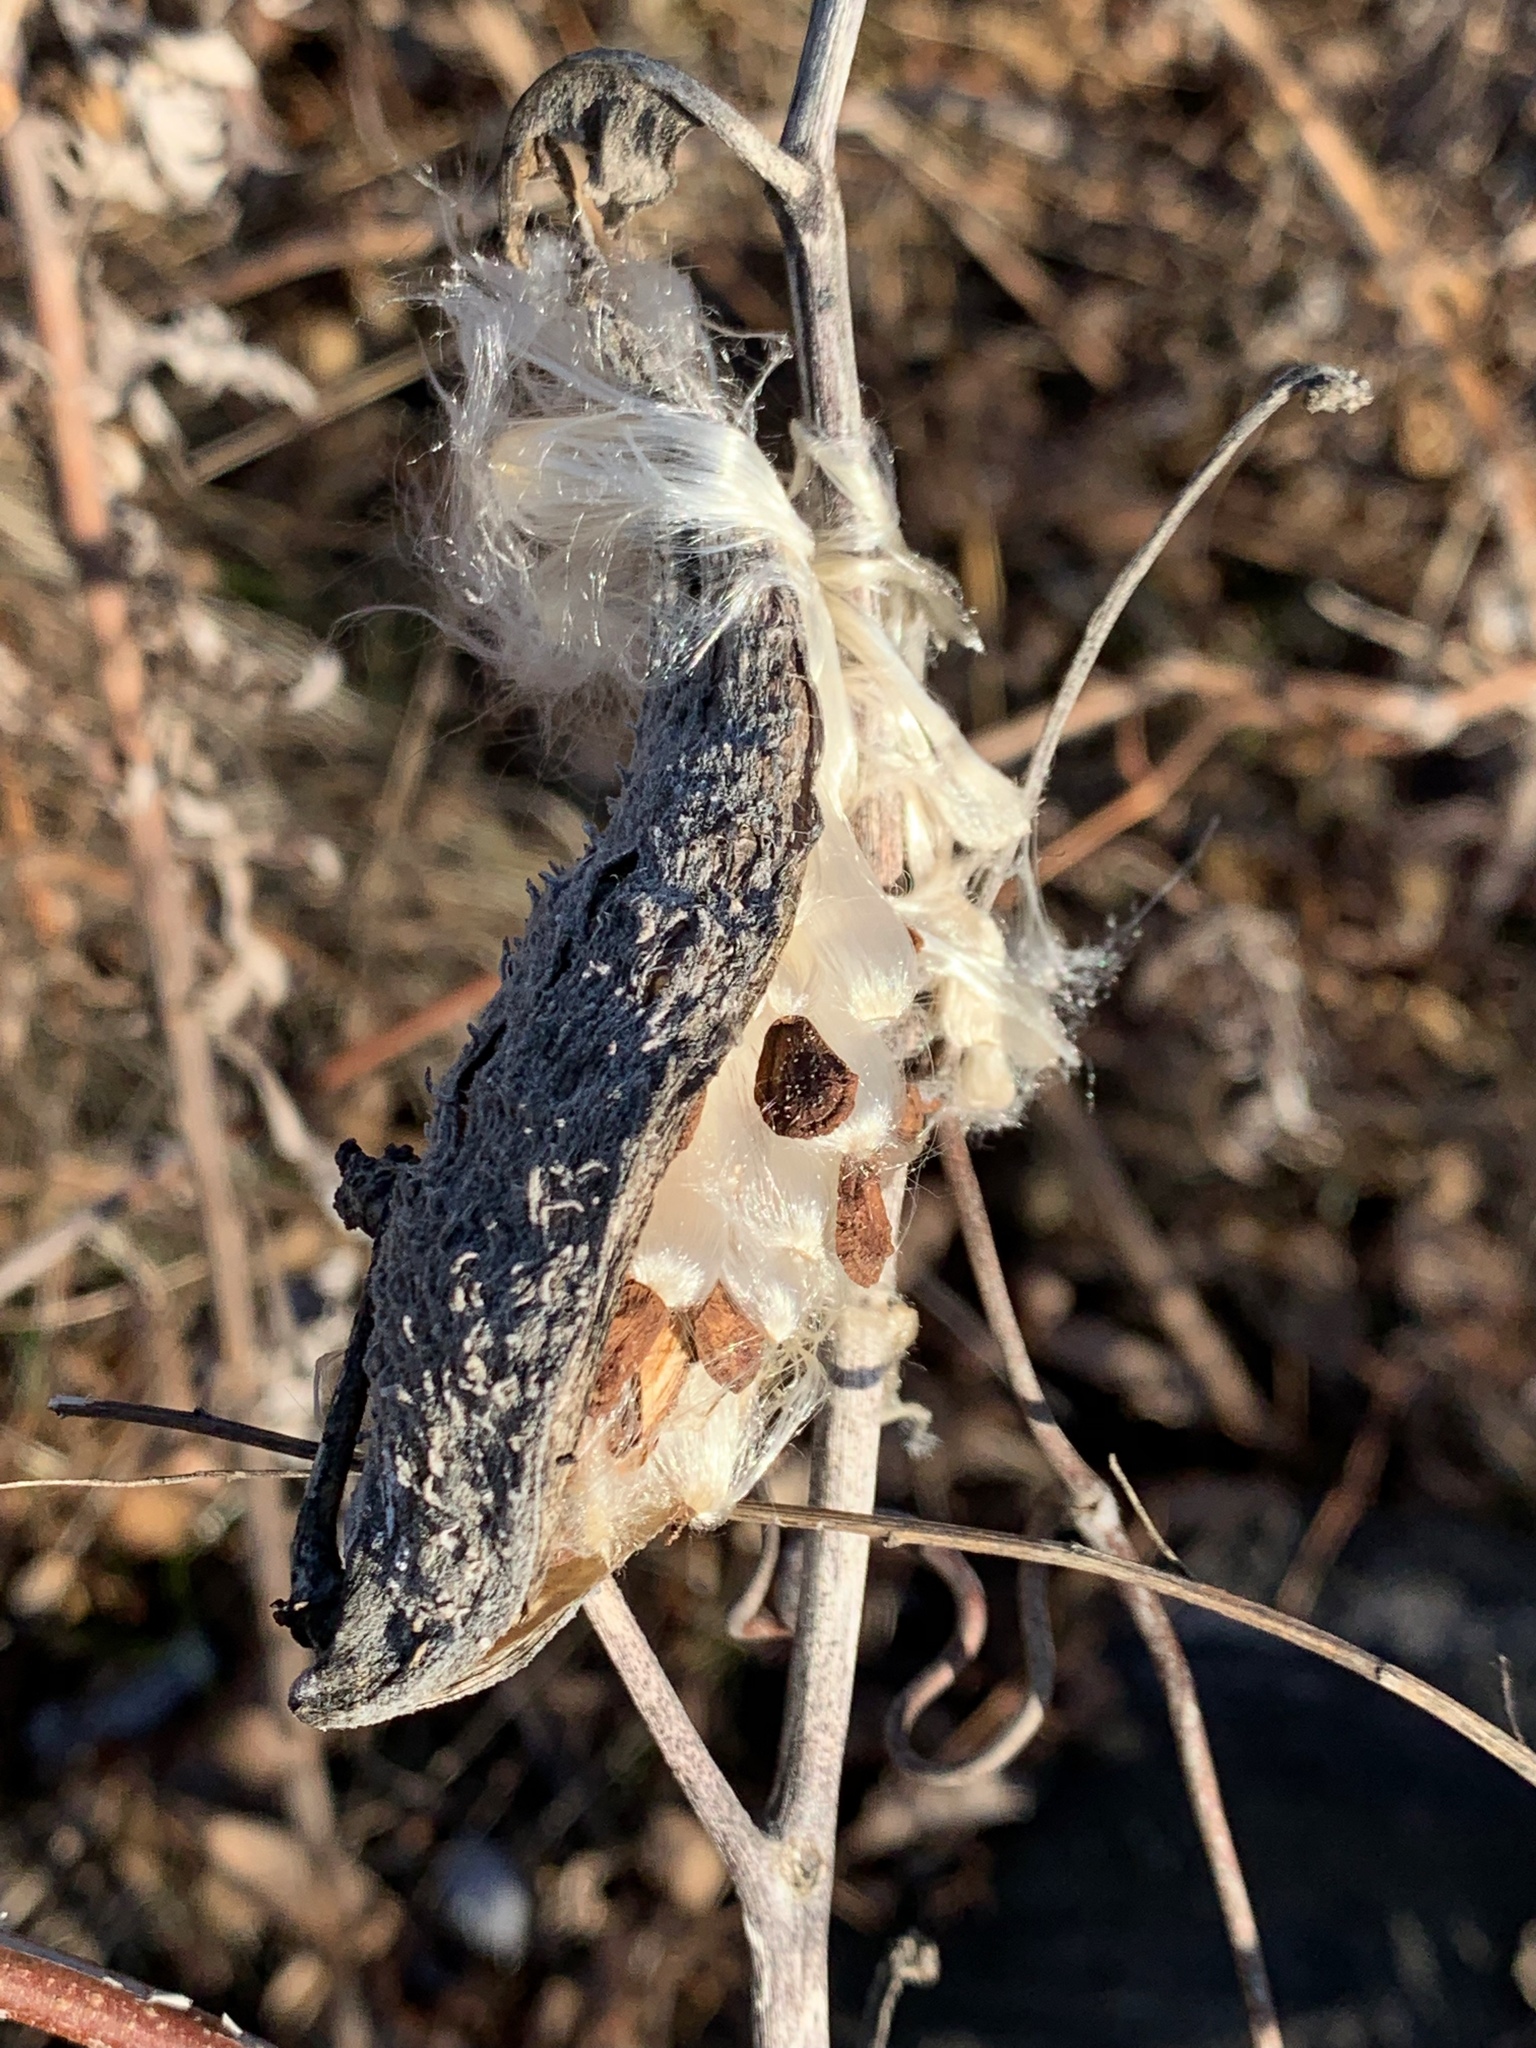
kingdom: Plantae
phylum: Tracheophyta
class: Magnoliopsida
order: Gentianales
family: Apocynaceae
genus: Asclepias
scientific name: Asclepias syriaca
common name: Common milkweed
